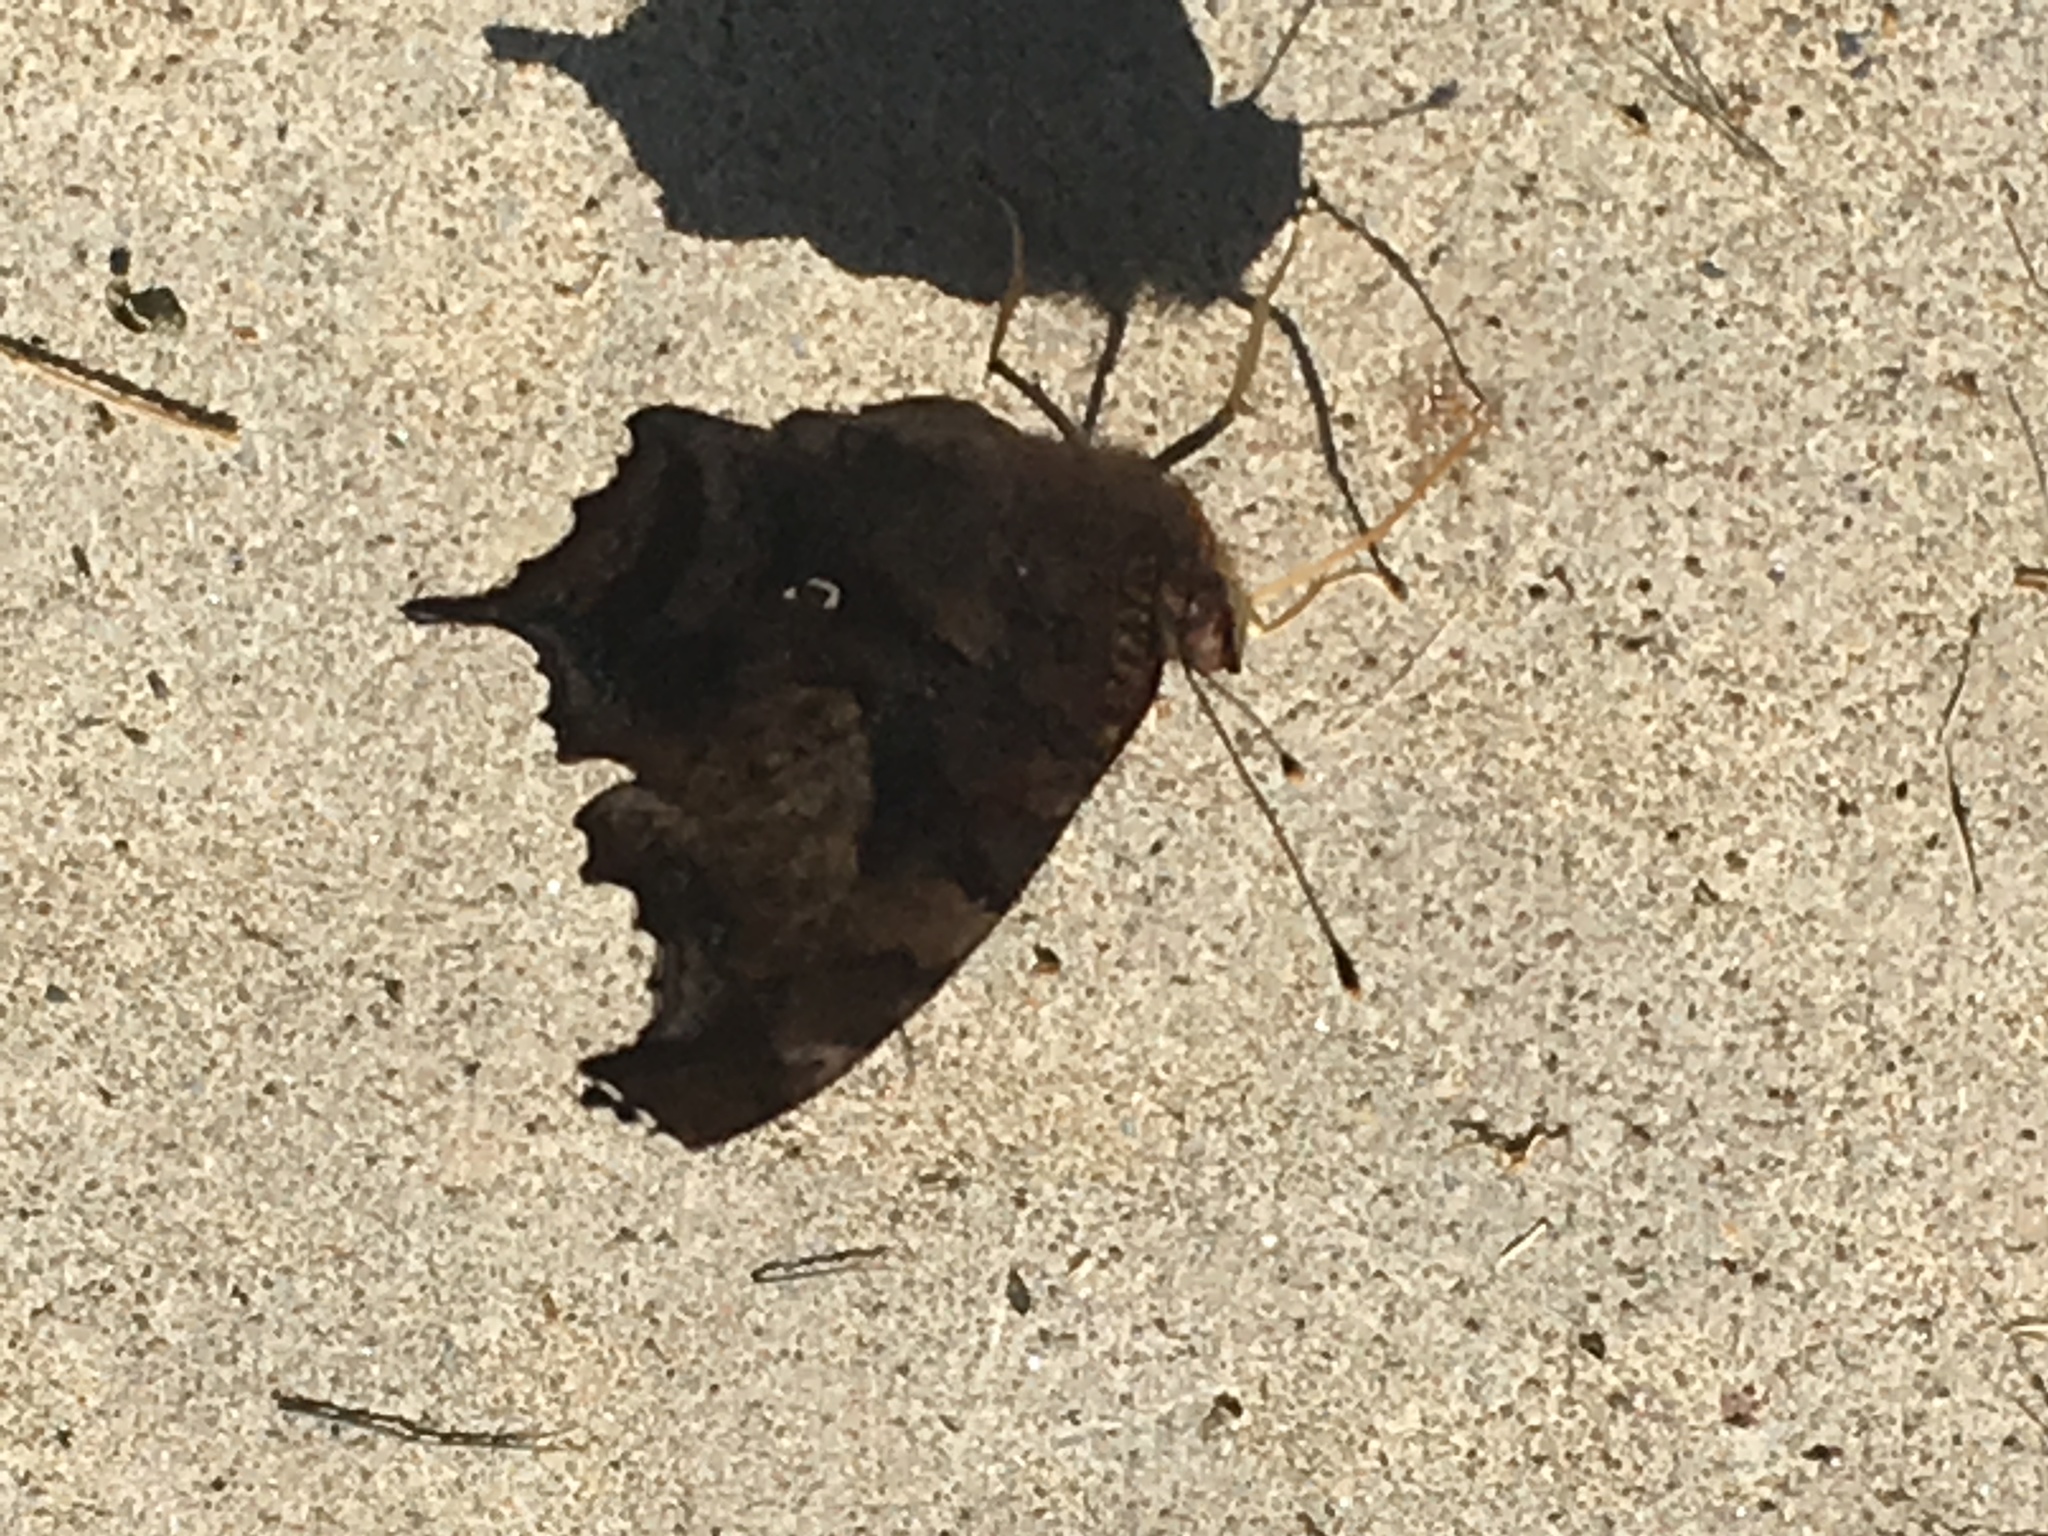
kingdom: Animalia
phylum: Arthropoda
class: Insecta
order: Lepidoptera
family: Nymphalidae
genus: Polygonia
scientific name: Polygonia interrogationis
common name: Question mark
